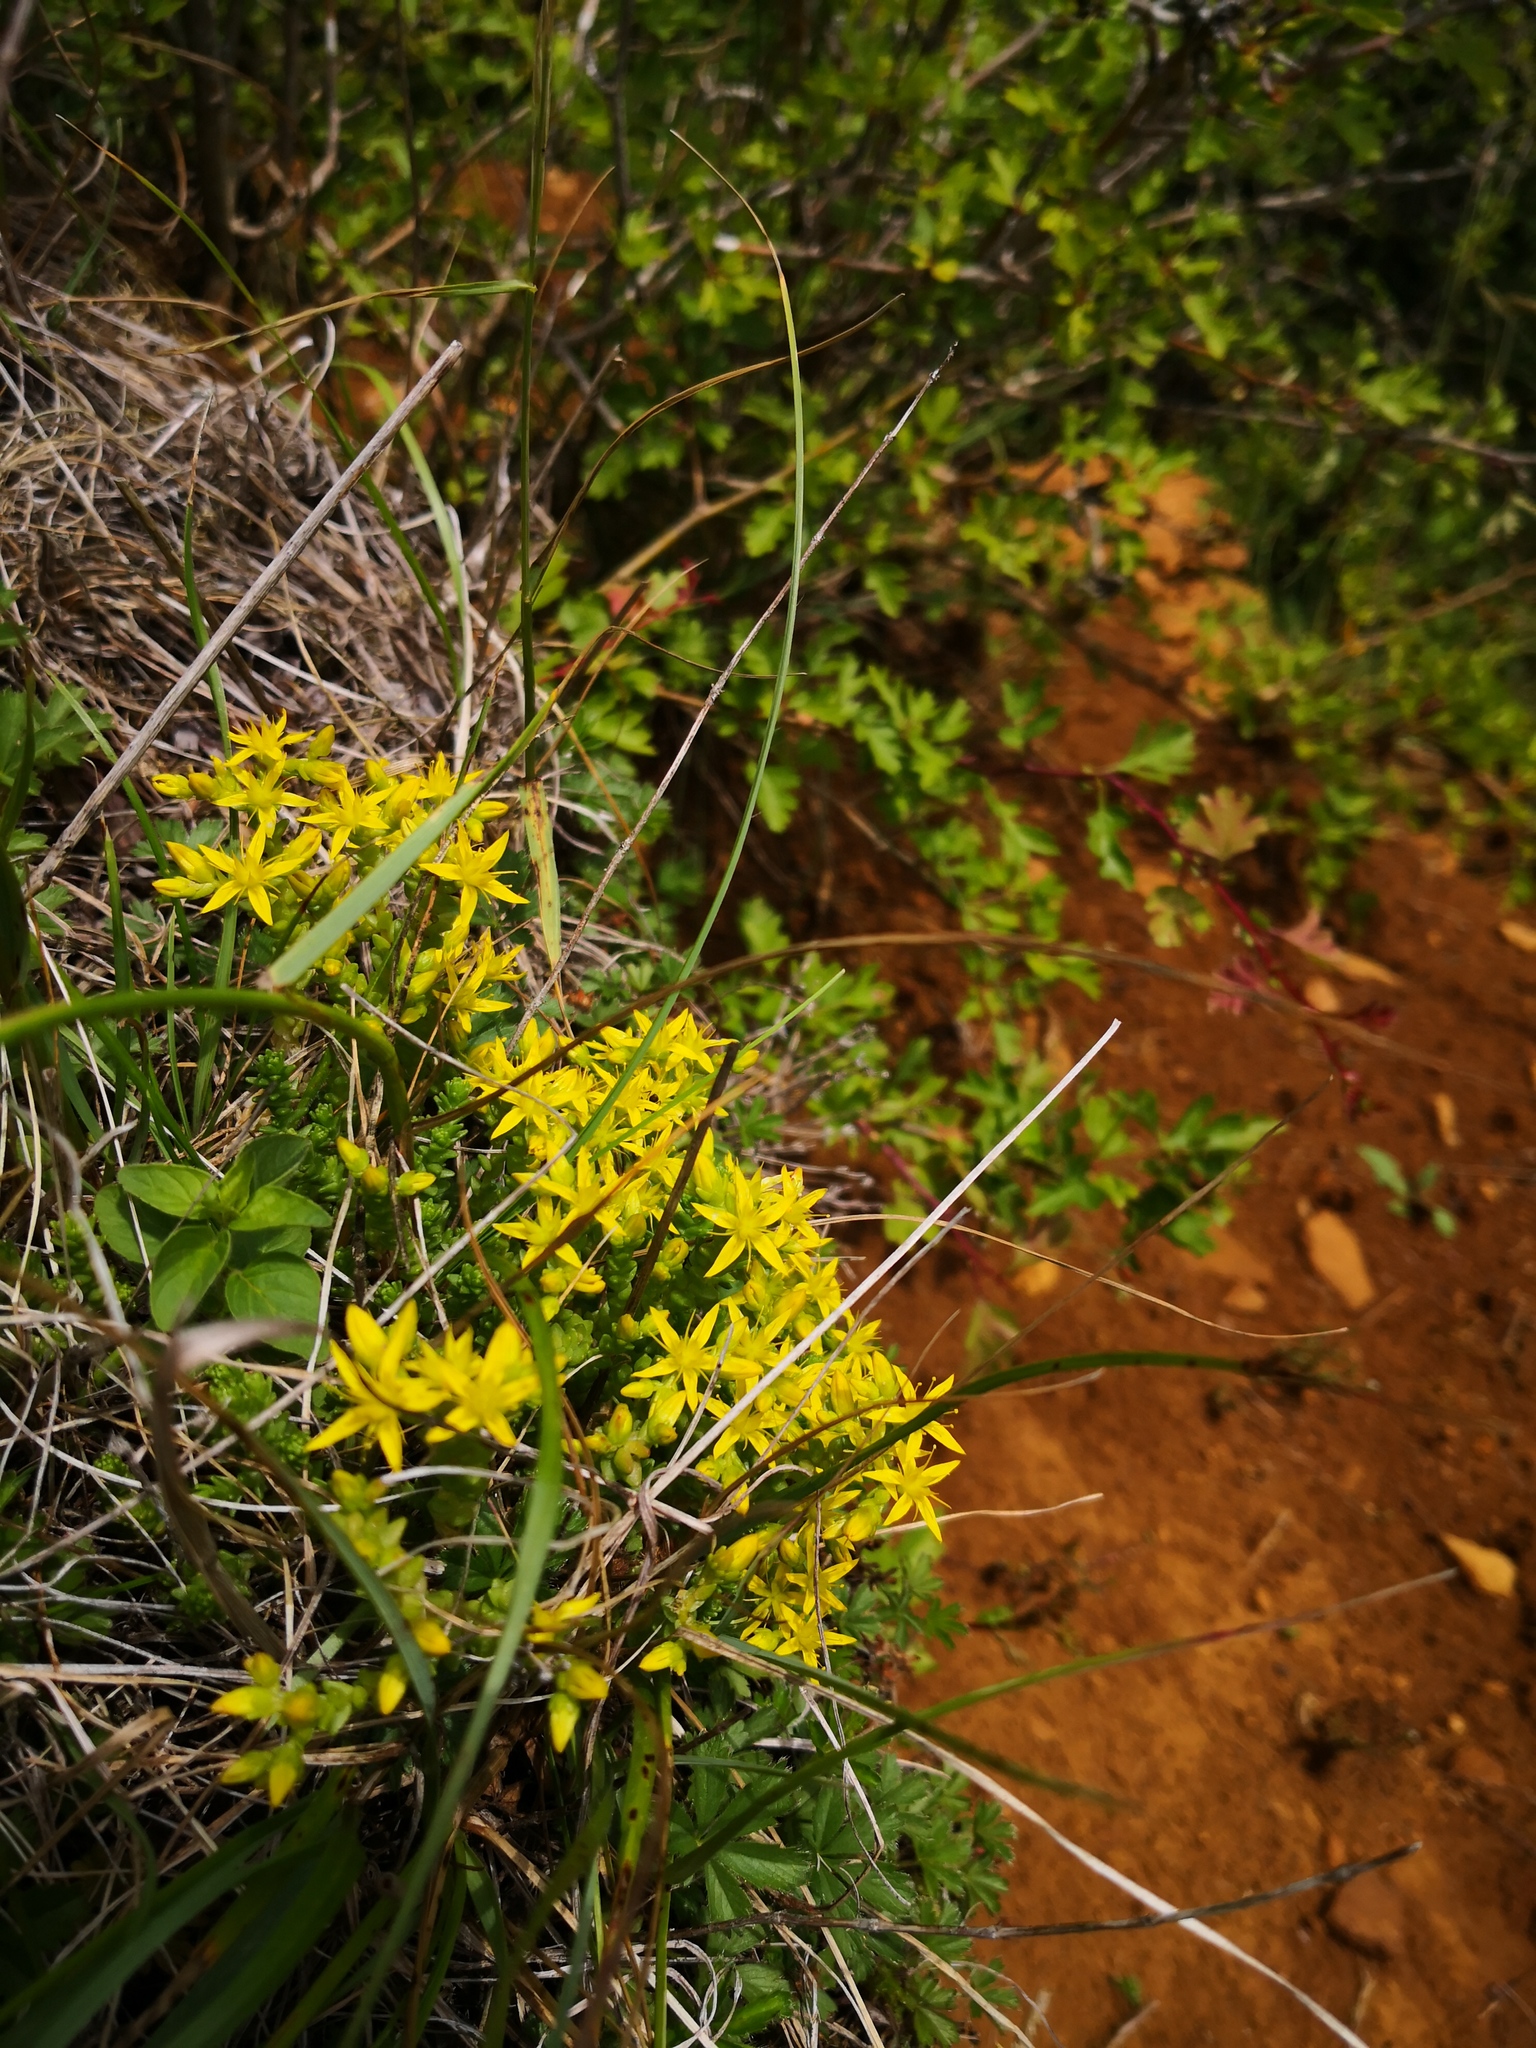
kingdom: Plantae
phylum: Tracheophyta
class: Magnoliopsida
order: Saxifragales
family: Crassulaceae
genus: Sedum
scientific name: Sedum acre
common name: Biting stonecrop
